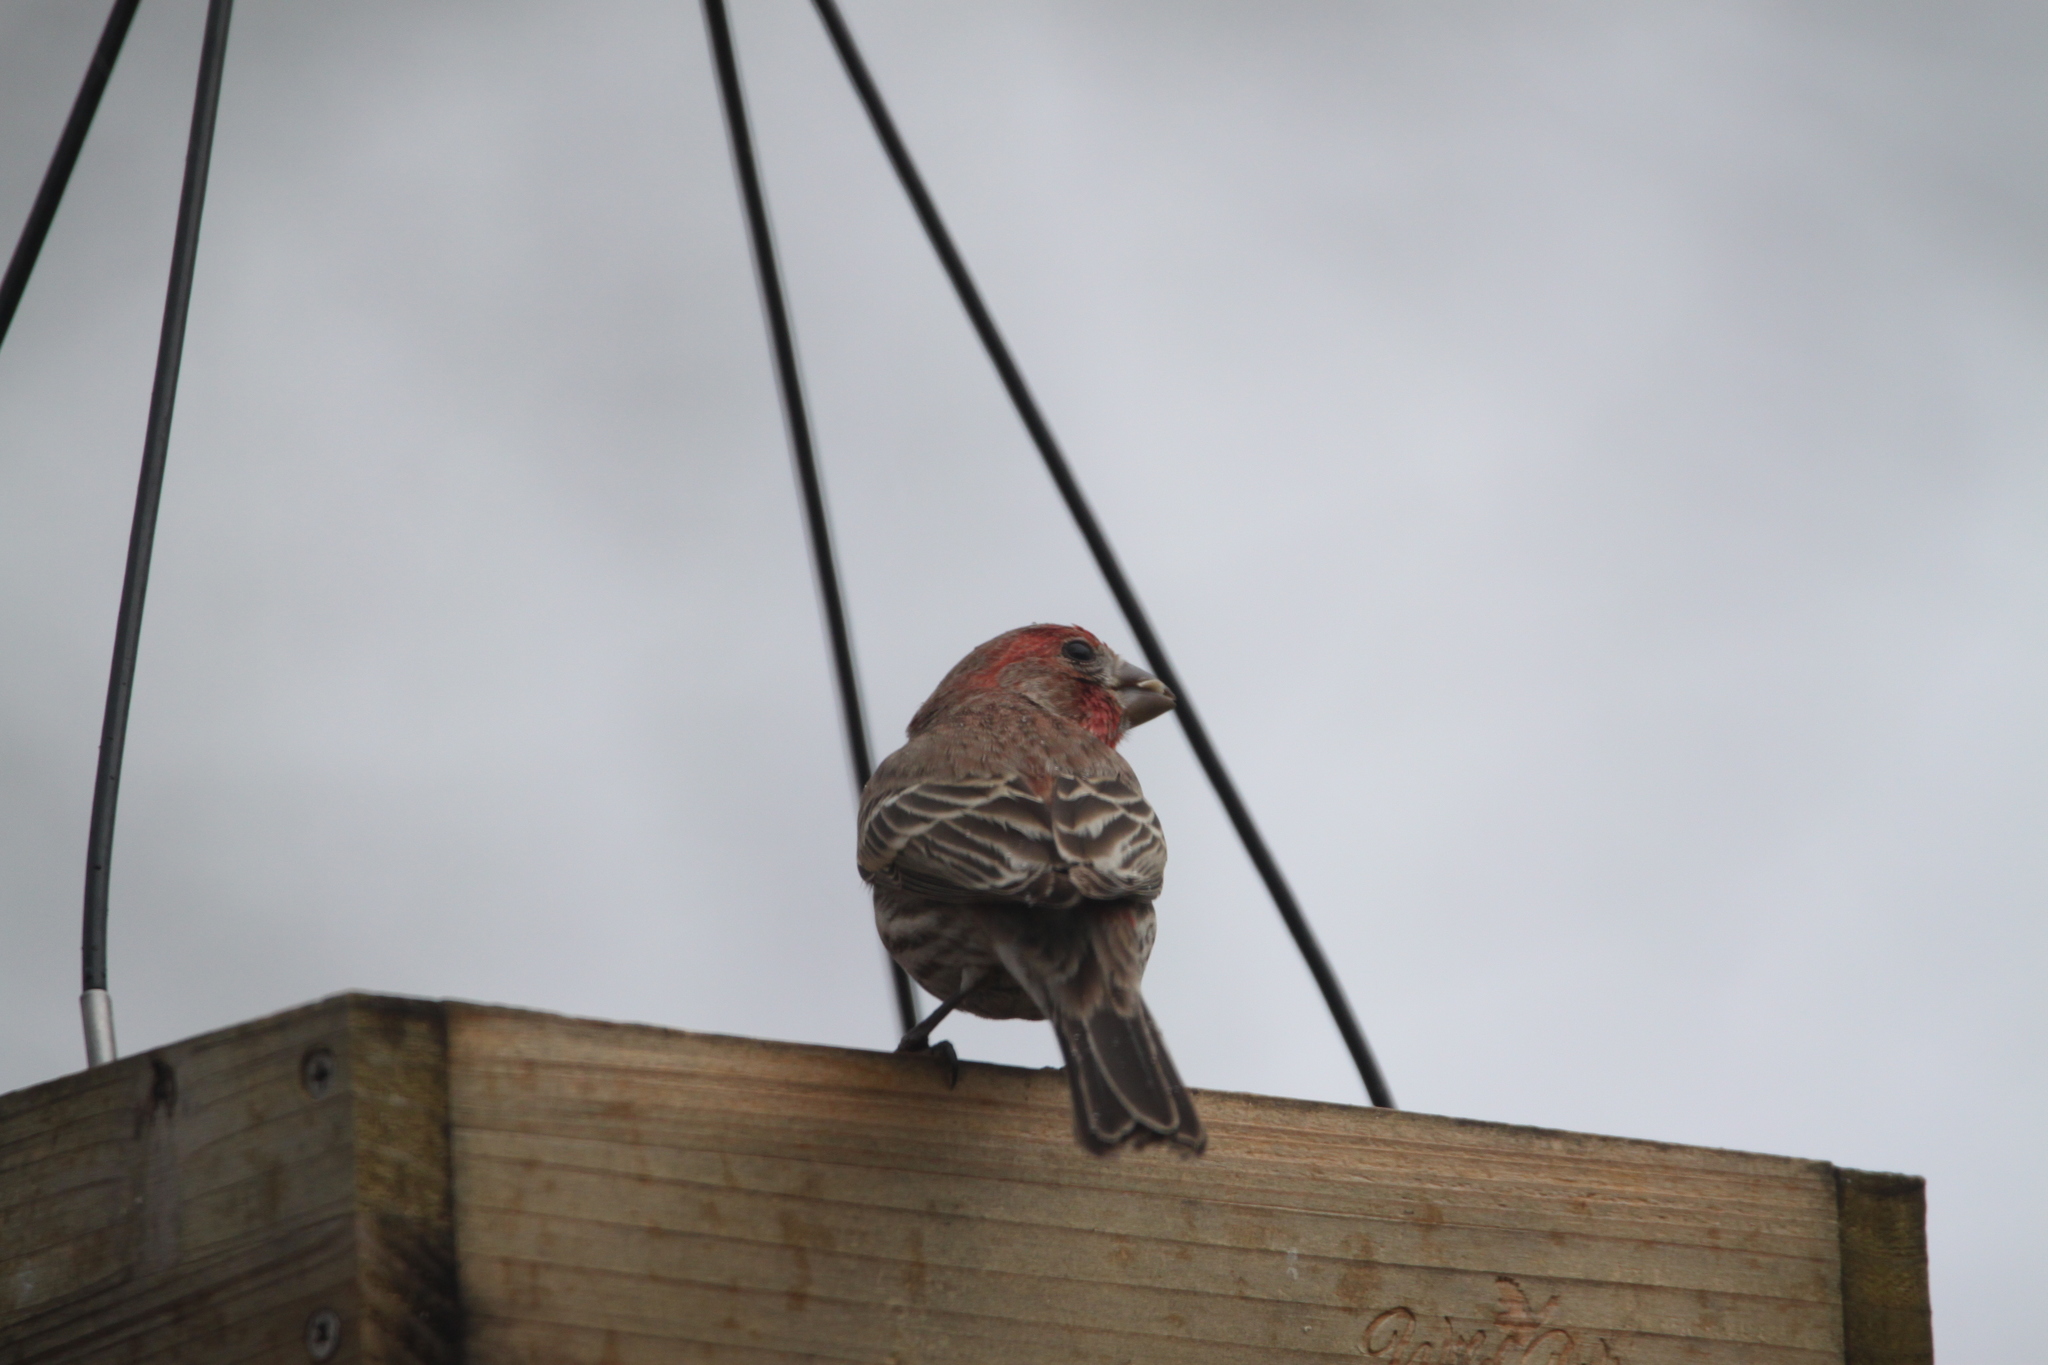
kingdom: Animalia
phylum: Chordata
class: Aves
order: Passeriformes
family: Fringillidae
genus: Haemorhous
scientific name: Haemorhous mexicanus
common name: House finch
